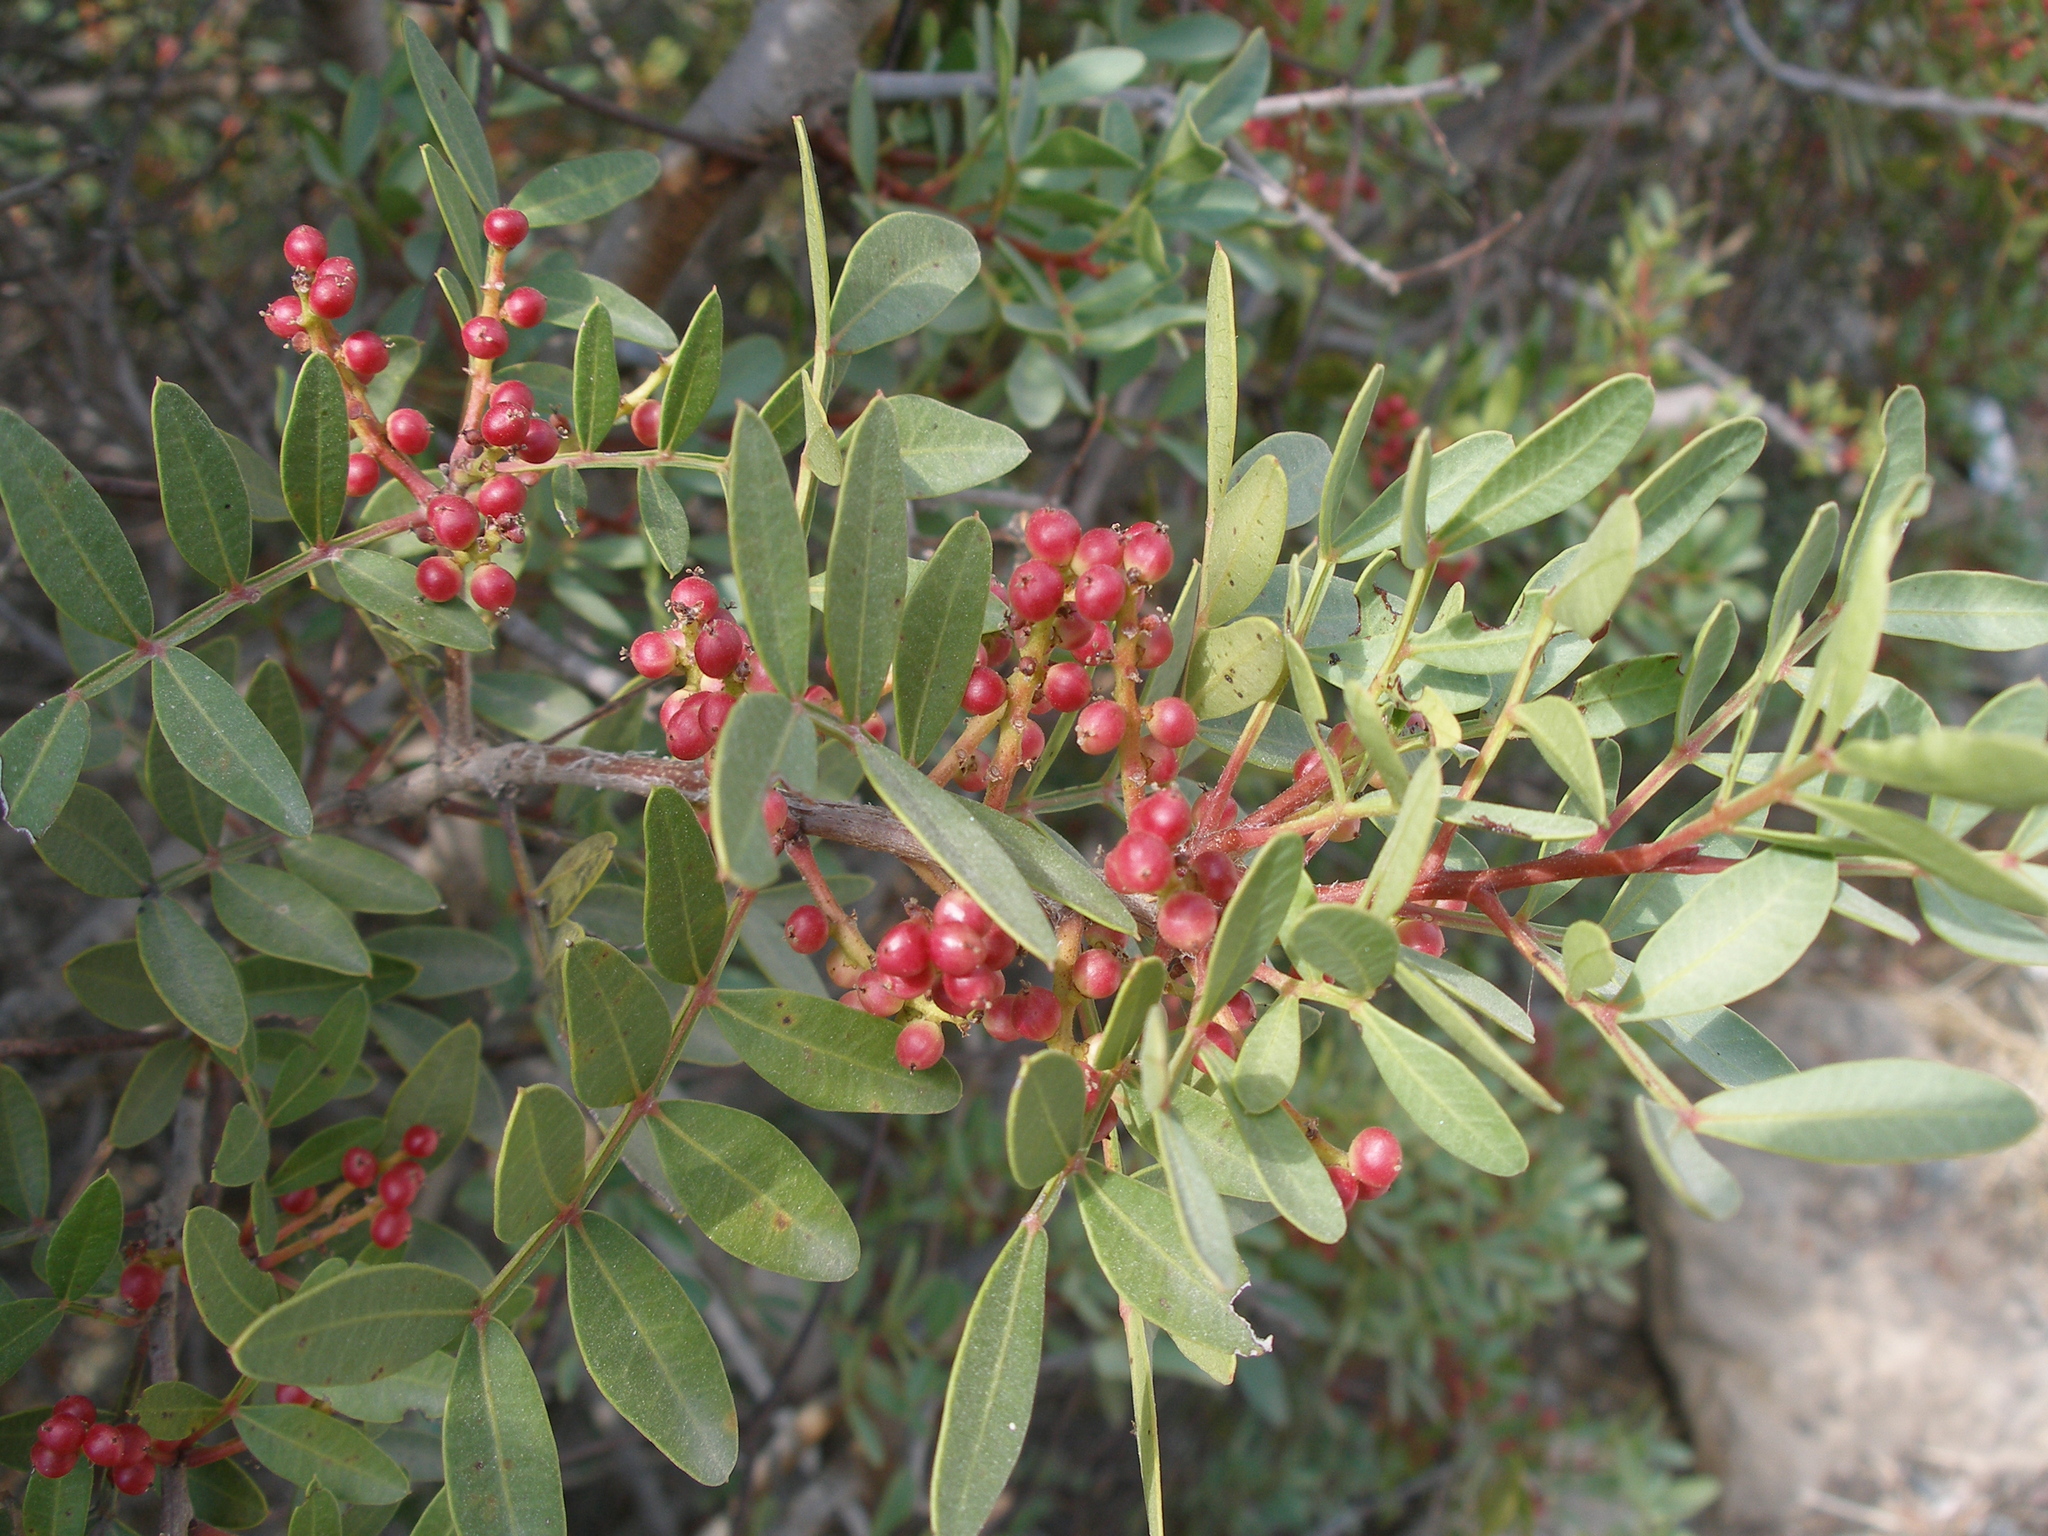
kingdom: Plantae
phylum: Tracheophyta
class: Magnoliopsida
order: Sapindales
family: Anacardiaceae
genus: Pistacia
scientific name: Pistacia lentiscus
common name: Lentisk
